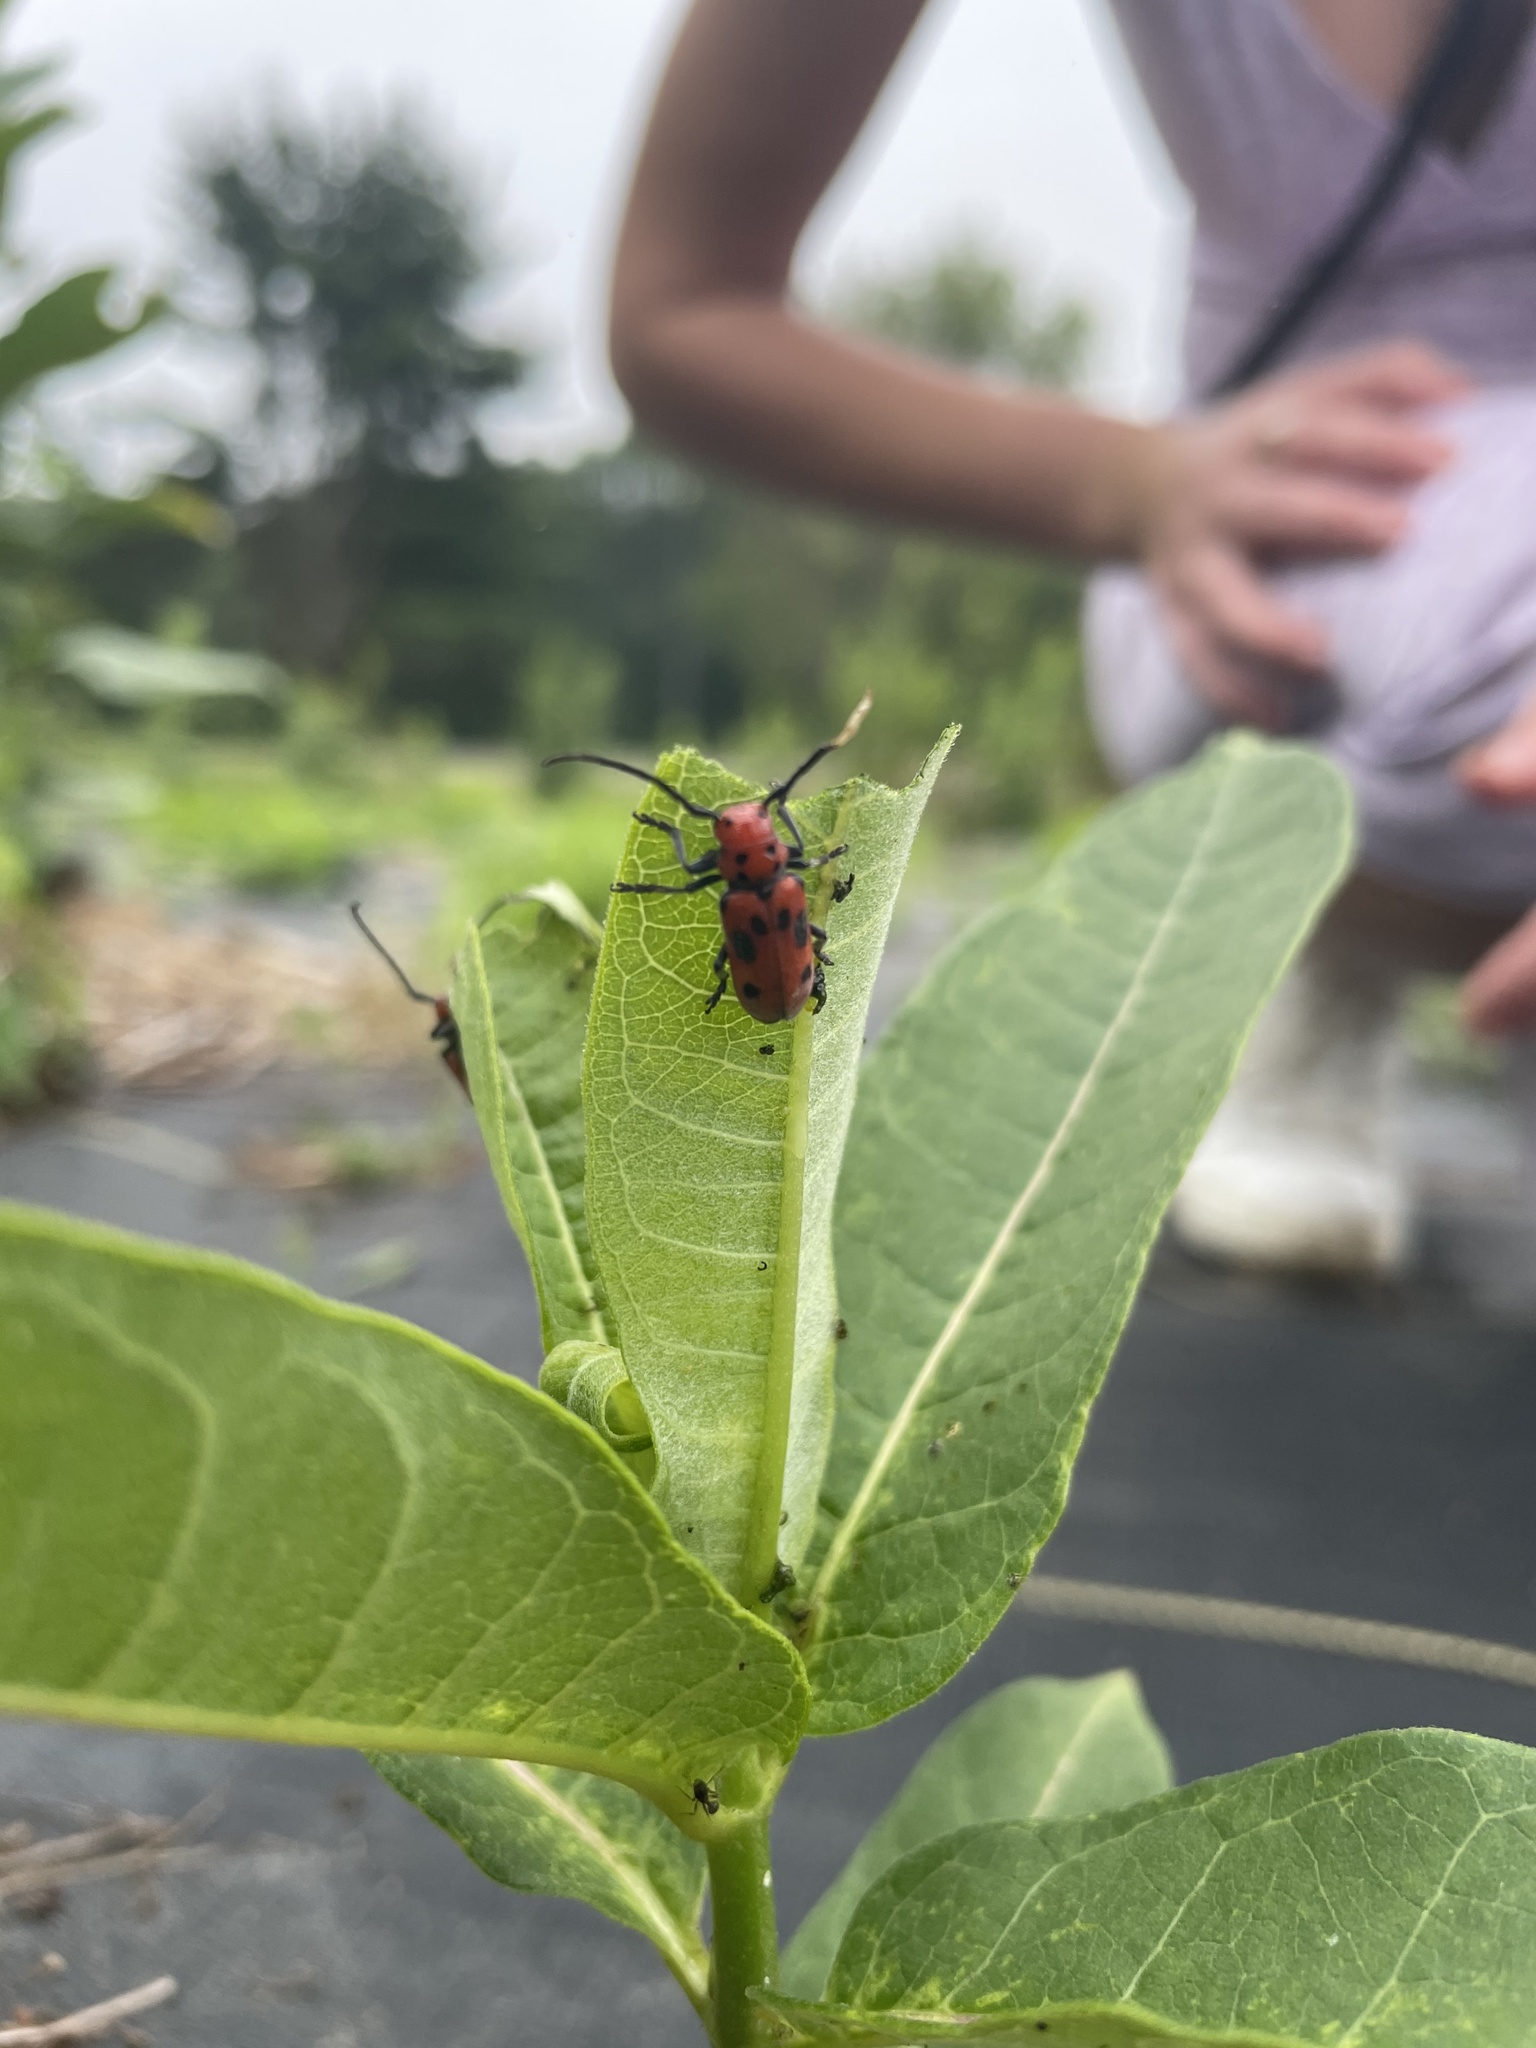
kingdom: Animalia
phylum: Arthropoda
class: Insecta
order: Coleoptera
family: Cerambycidae
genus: Tetraopes
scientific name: Tetraopes tetrophthalmus
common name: Red milkweed beetle
